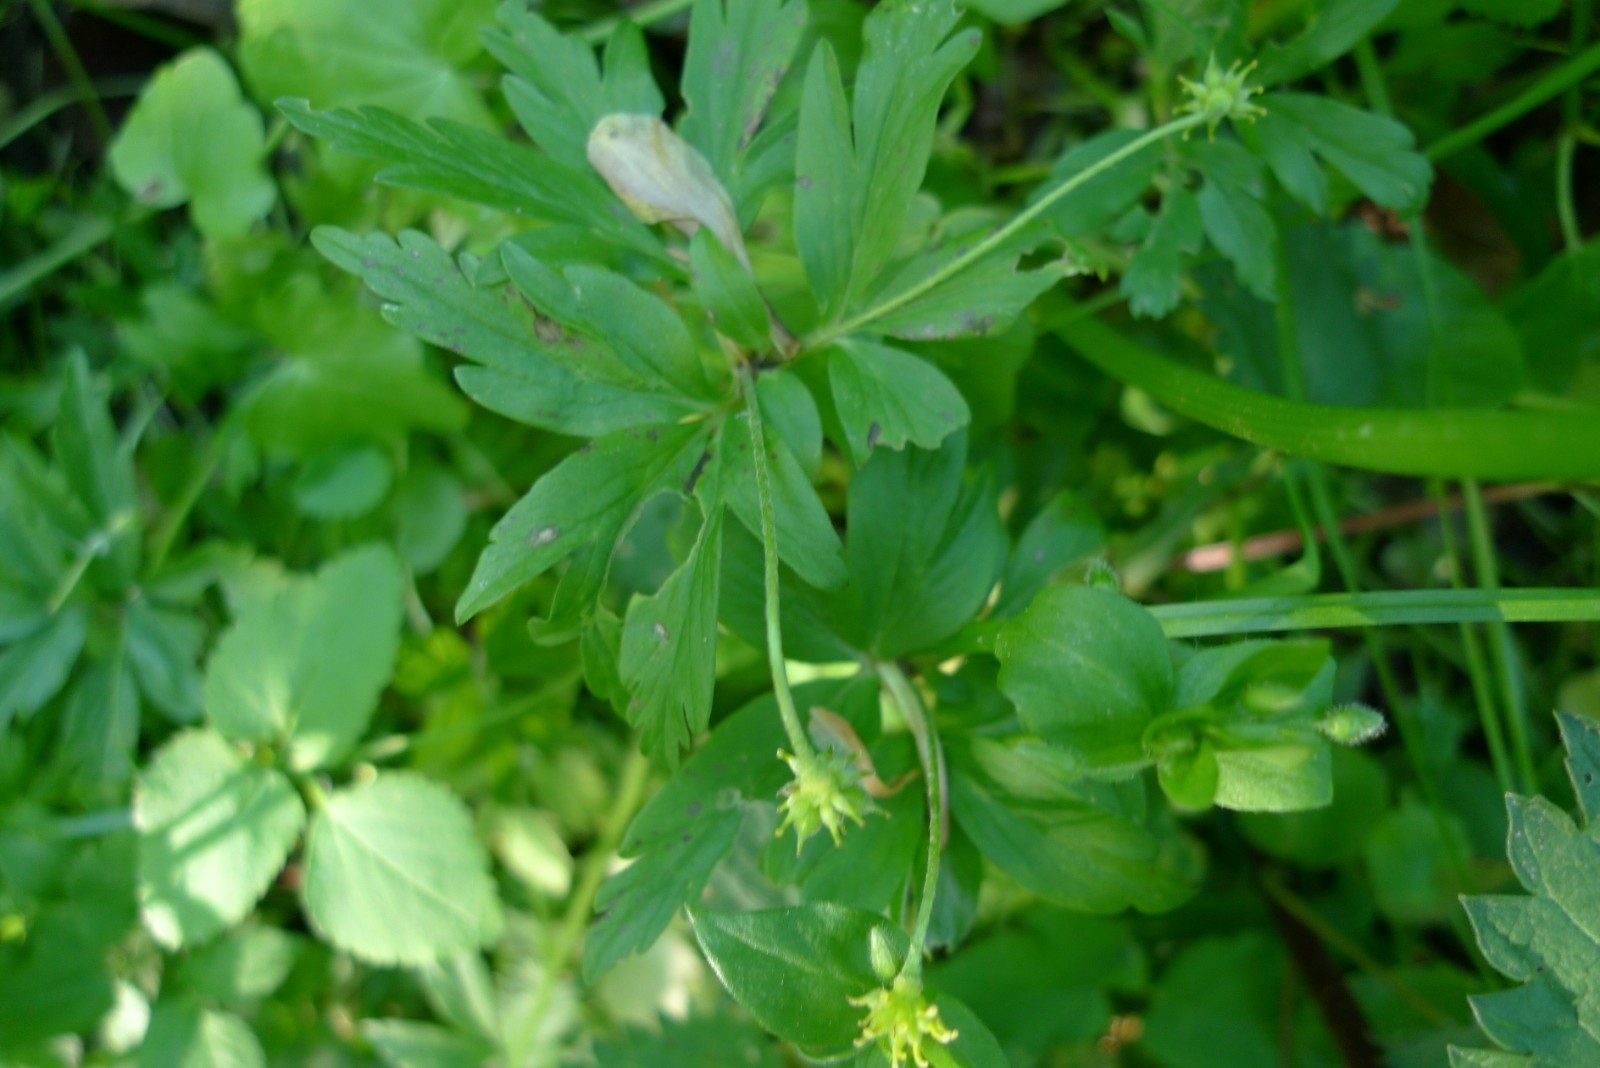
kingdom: Plantae
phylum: Tracheophyta
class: Magnoliopsida
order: Ranunculales
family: Ranunculaceae
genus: Anemone
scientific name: Anemone ranunculoides
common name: Yellow anemone
